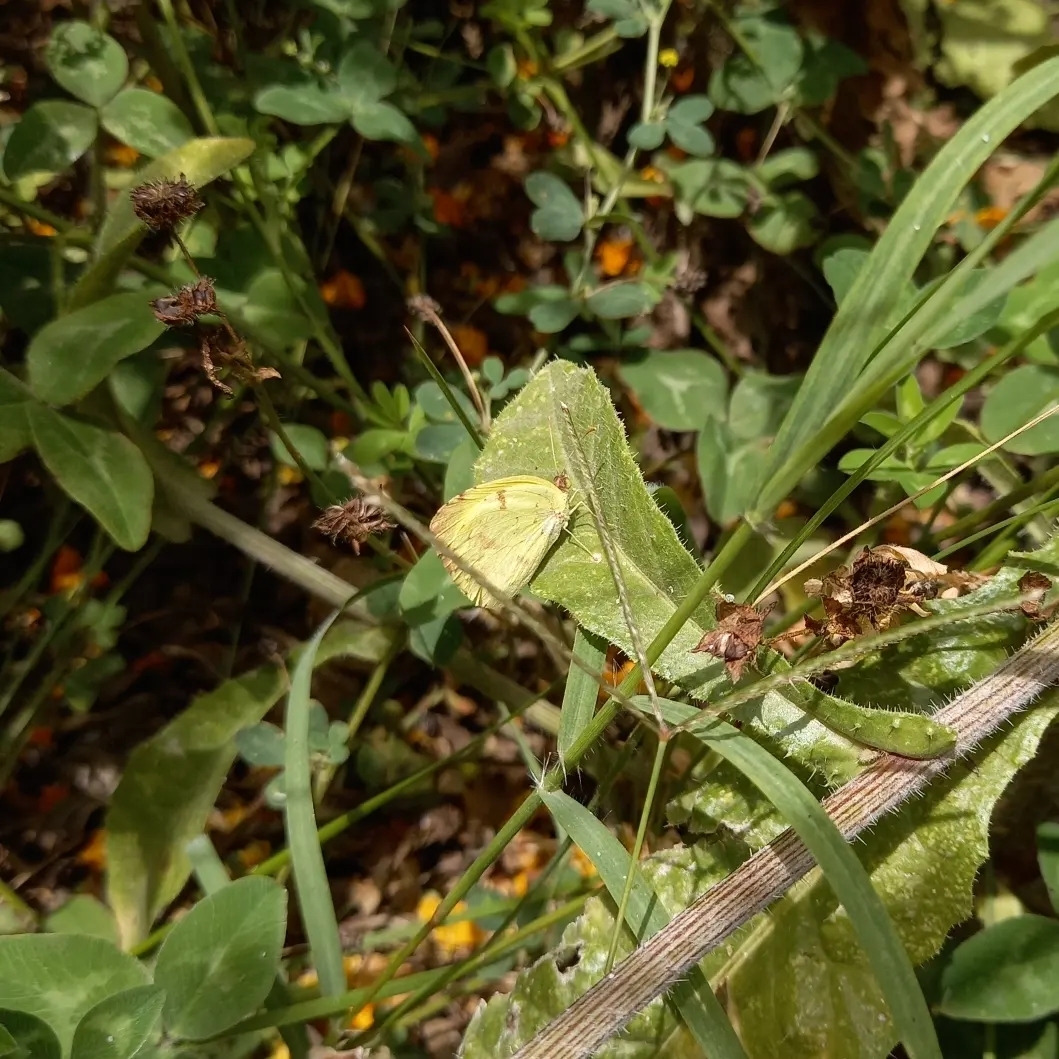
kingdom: Animalia
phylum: Arthropoda
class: Insecta
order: Lepidoptera
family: Pieridae
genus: Teriocolias
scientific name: Teriocolias
